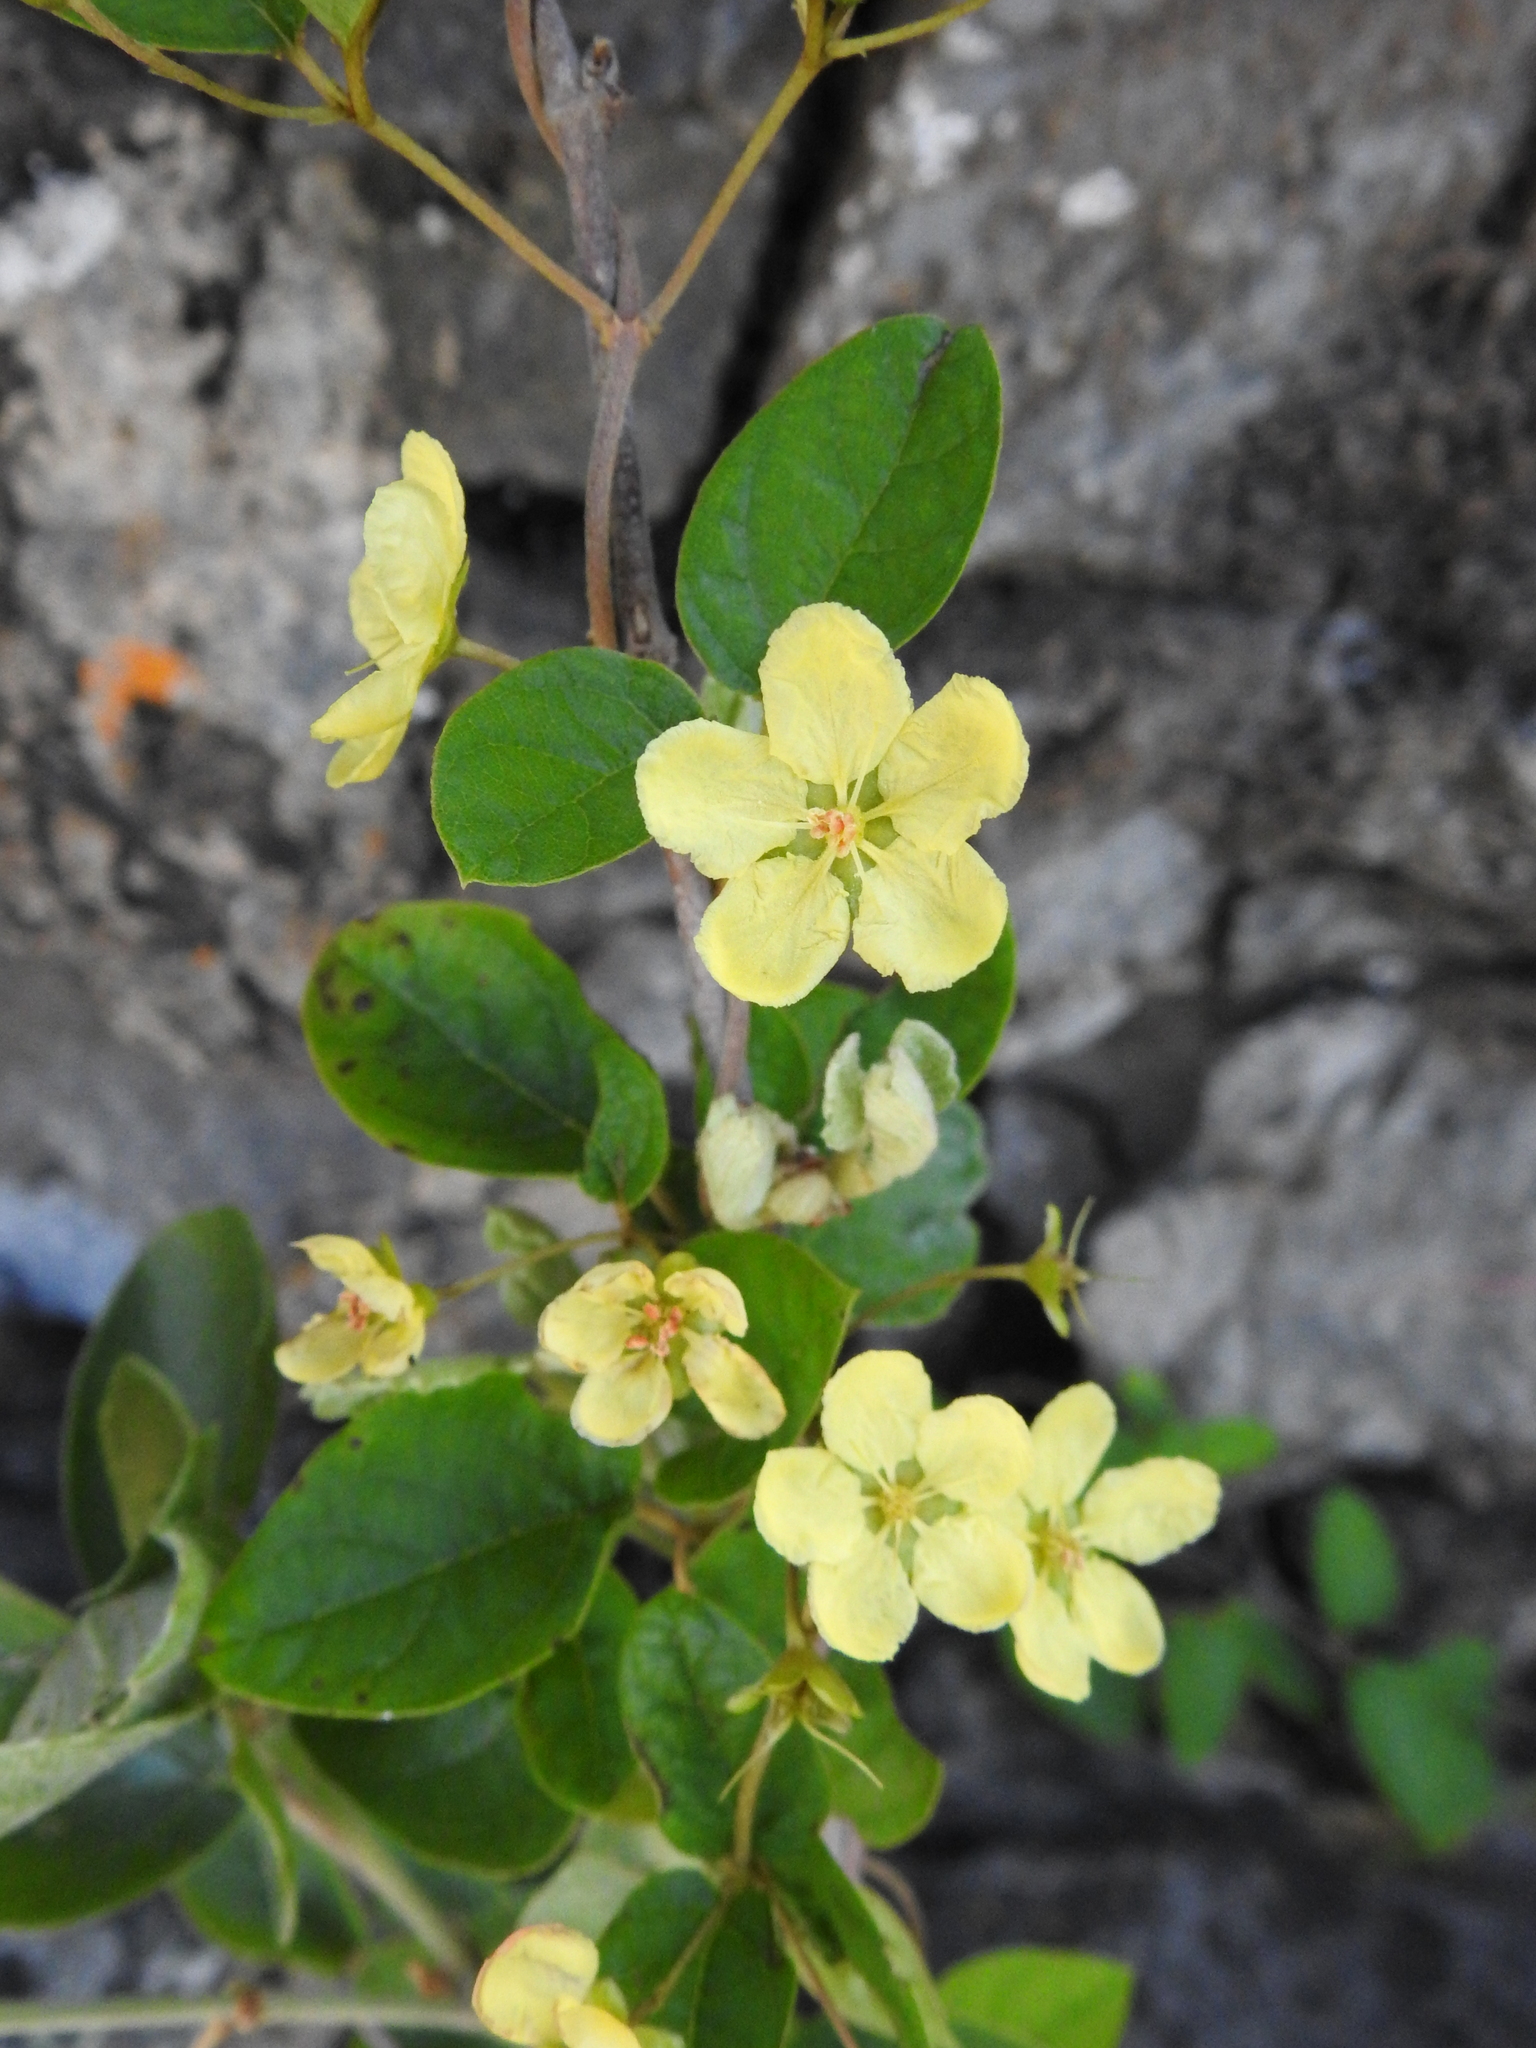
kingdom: Plantae
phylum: Tracheophyta
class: Magnoliopsida
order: Malpighiales
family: Malpighiaceae
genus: Sphedamnocarpus
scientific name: Sphedamnocarpus pruriens
